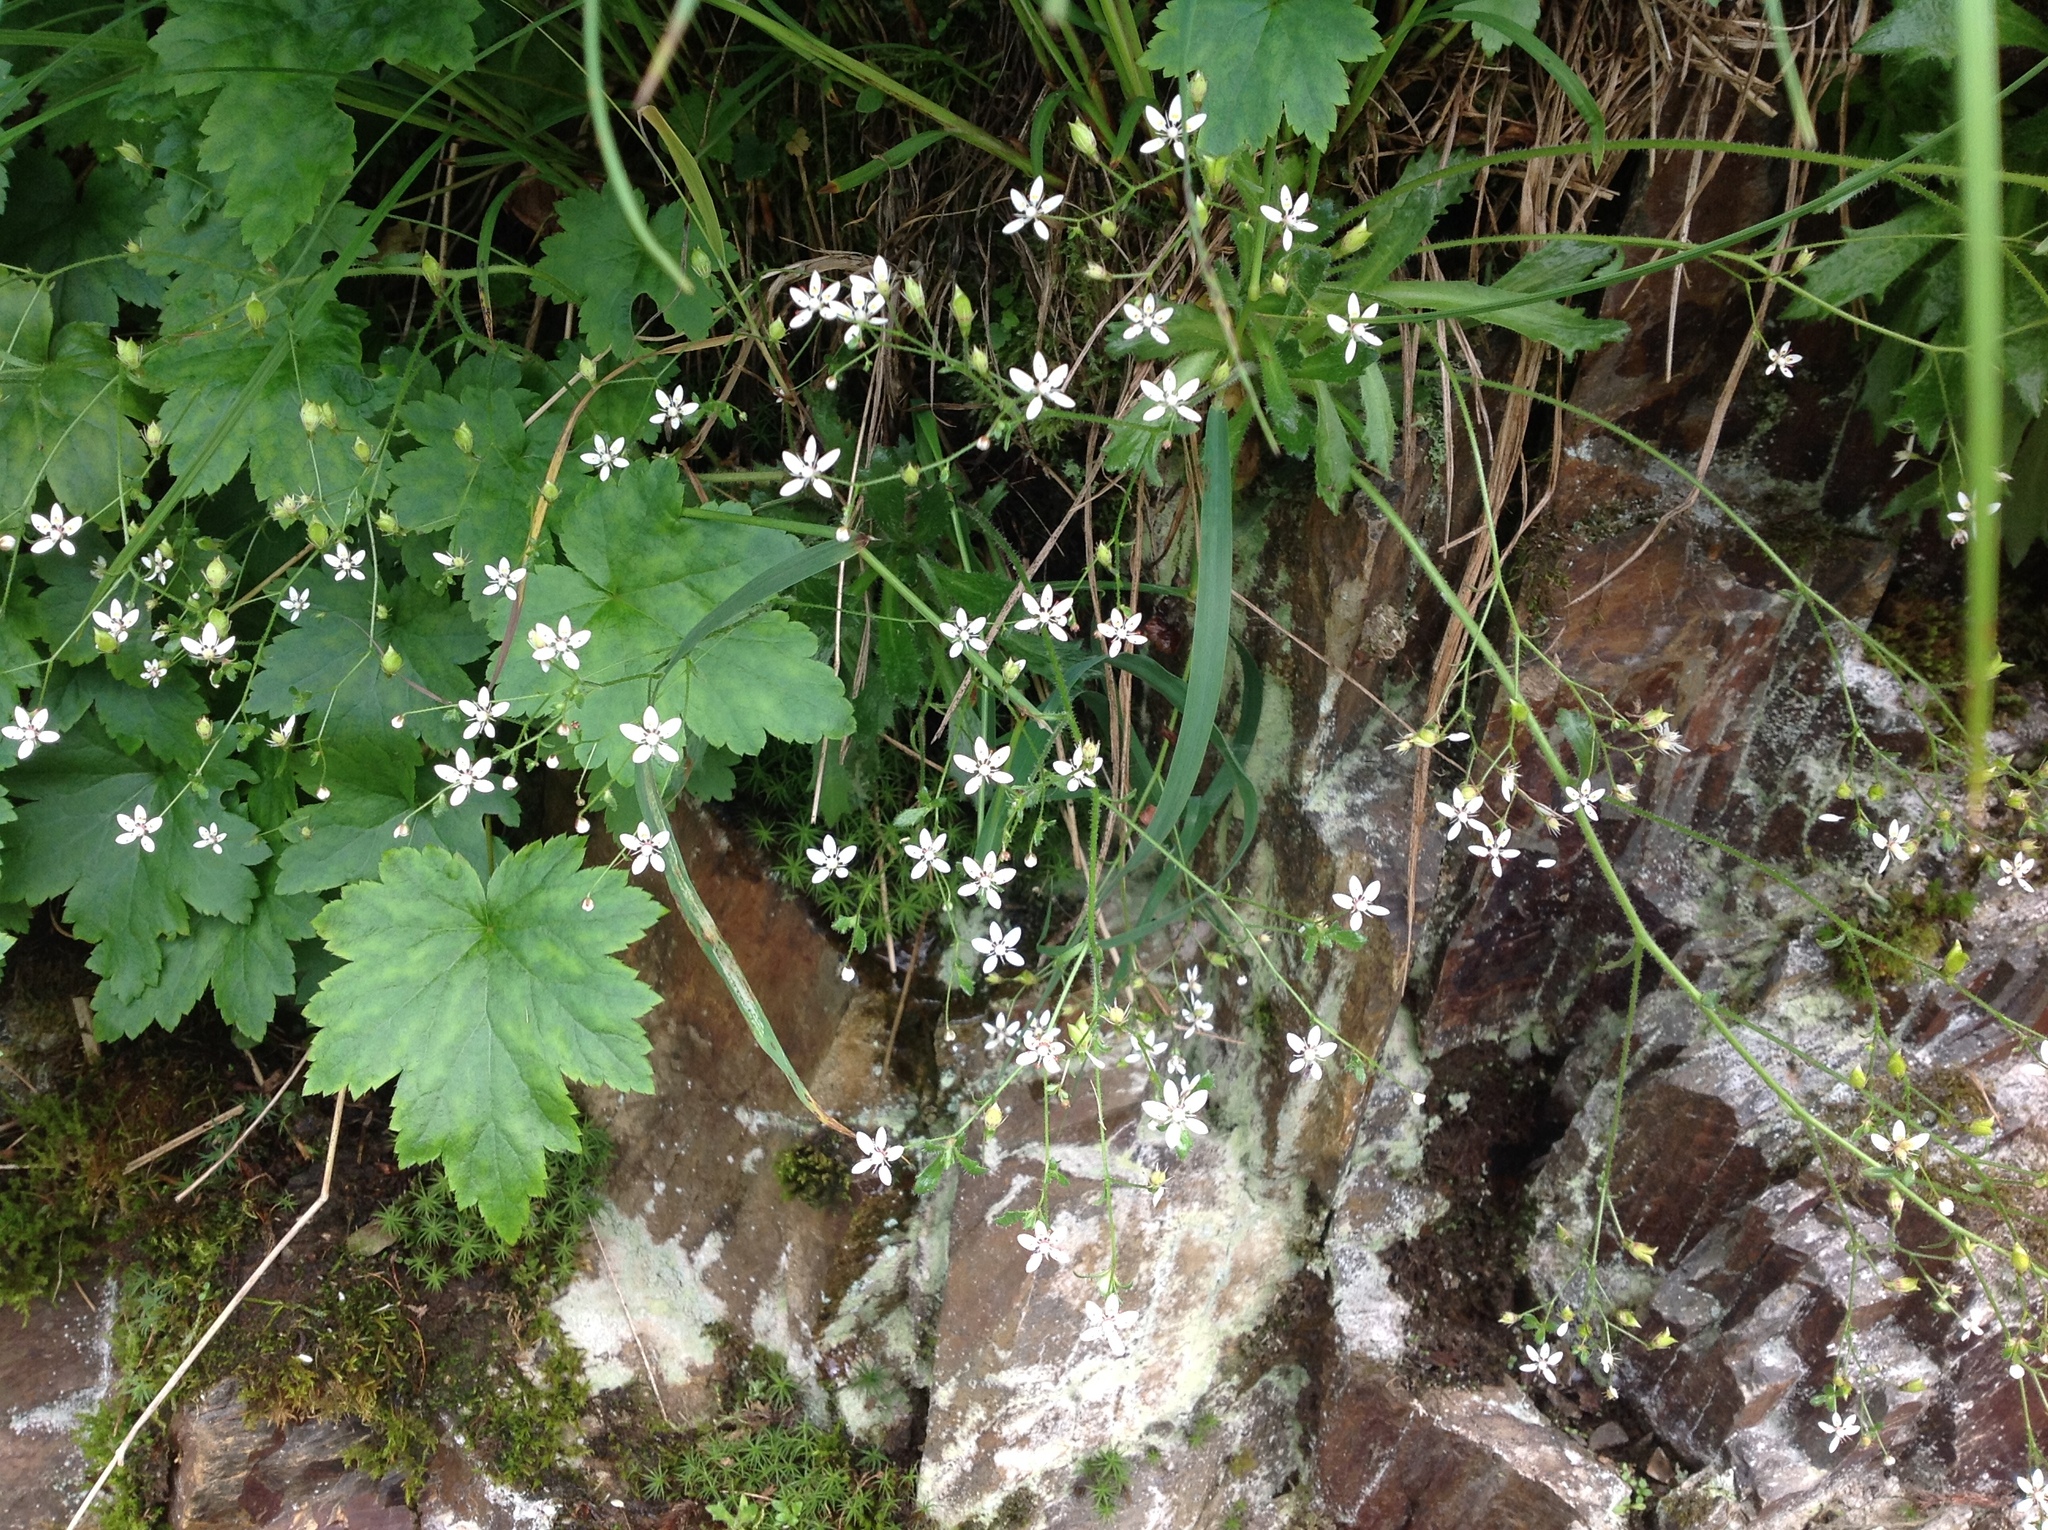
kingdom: Plantae
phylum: Tracheophyta
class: Magnoliopsida
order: Saxifragales
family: Saxifragaceae
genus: Micranthes
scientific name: Micranthes ferruginea
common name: Rusty saxifrage
